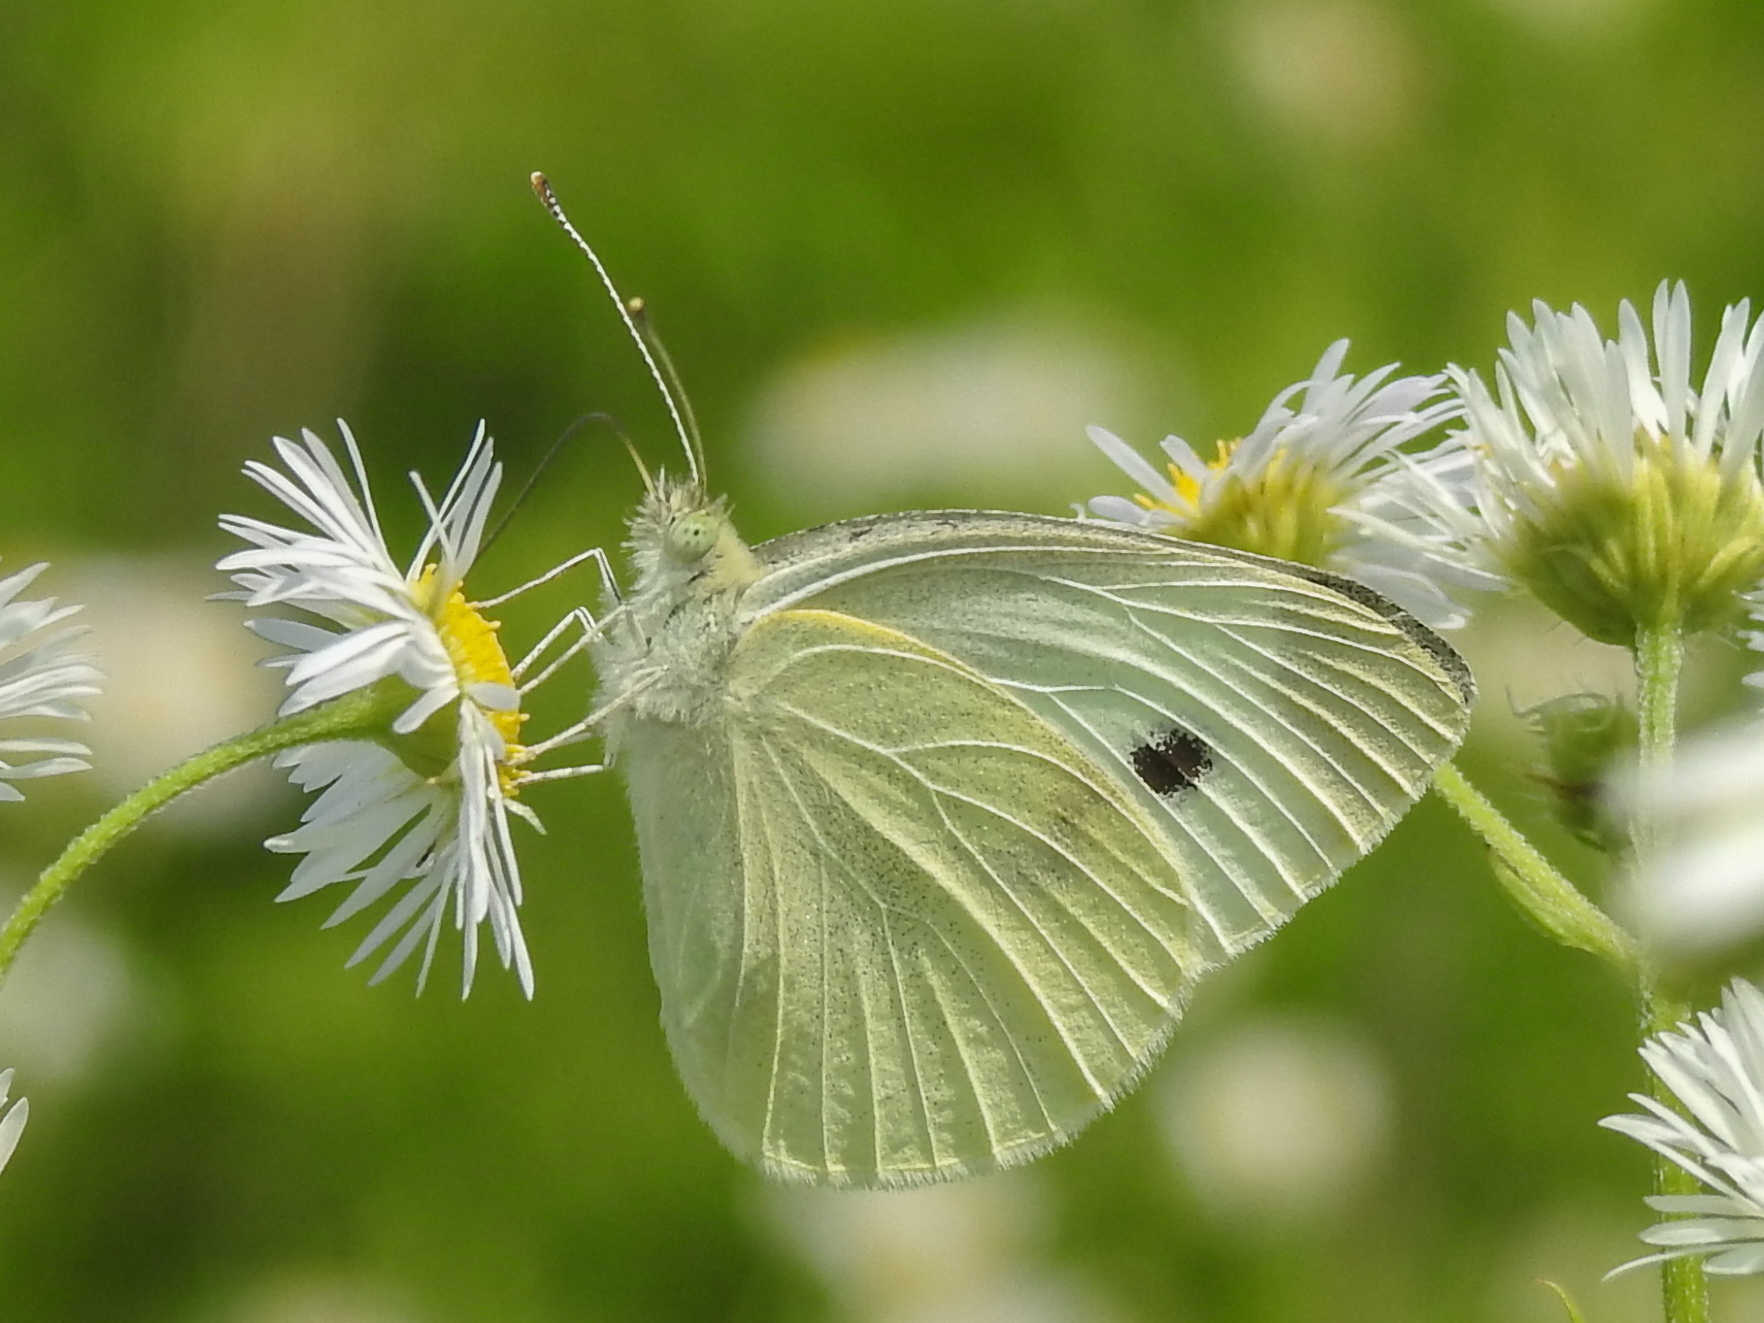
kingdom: Animalia
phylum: Arthropoda
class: Insecta
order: Lepidoptera
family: Pieridae
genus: Pieris
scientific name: Pieris rapae
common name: Small white
